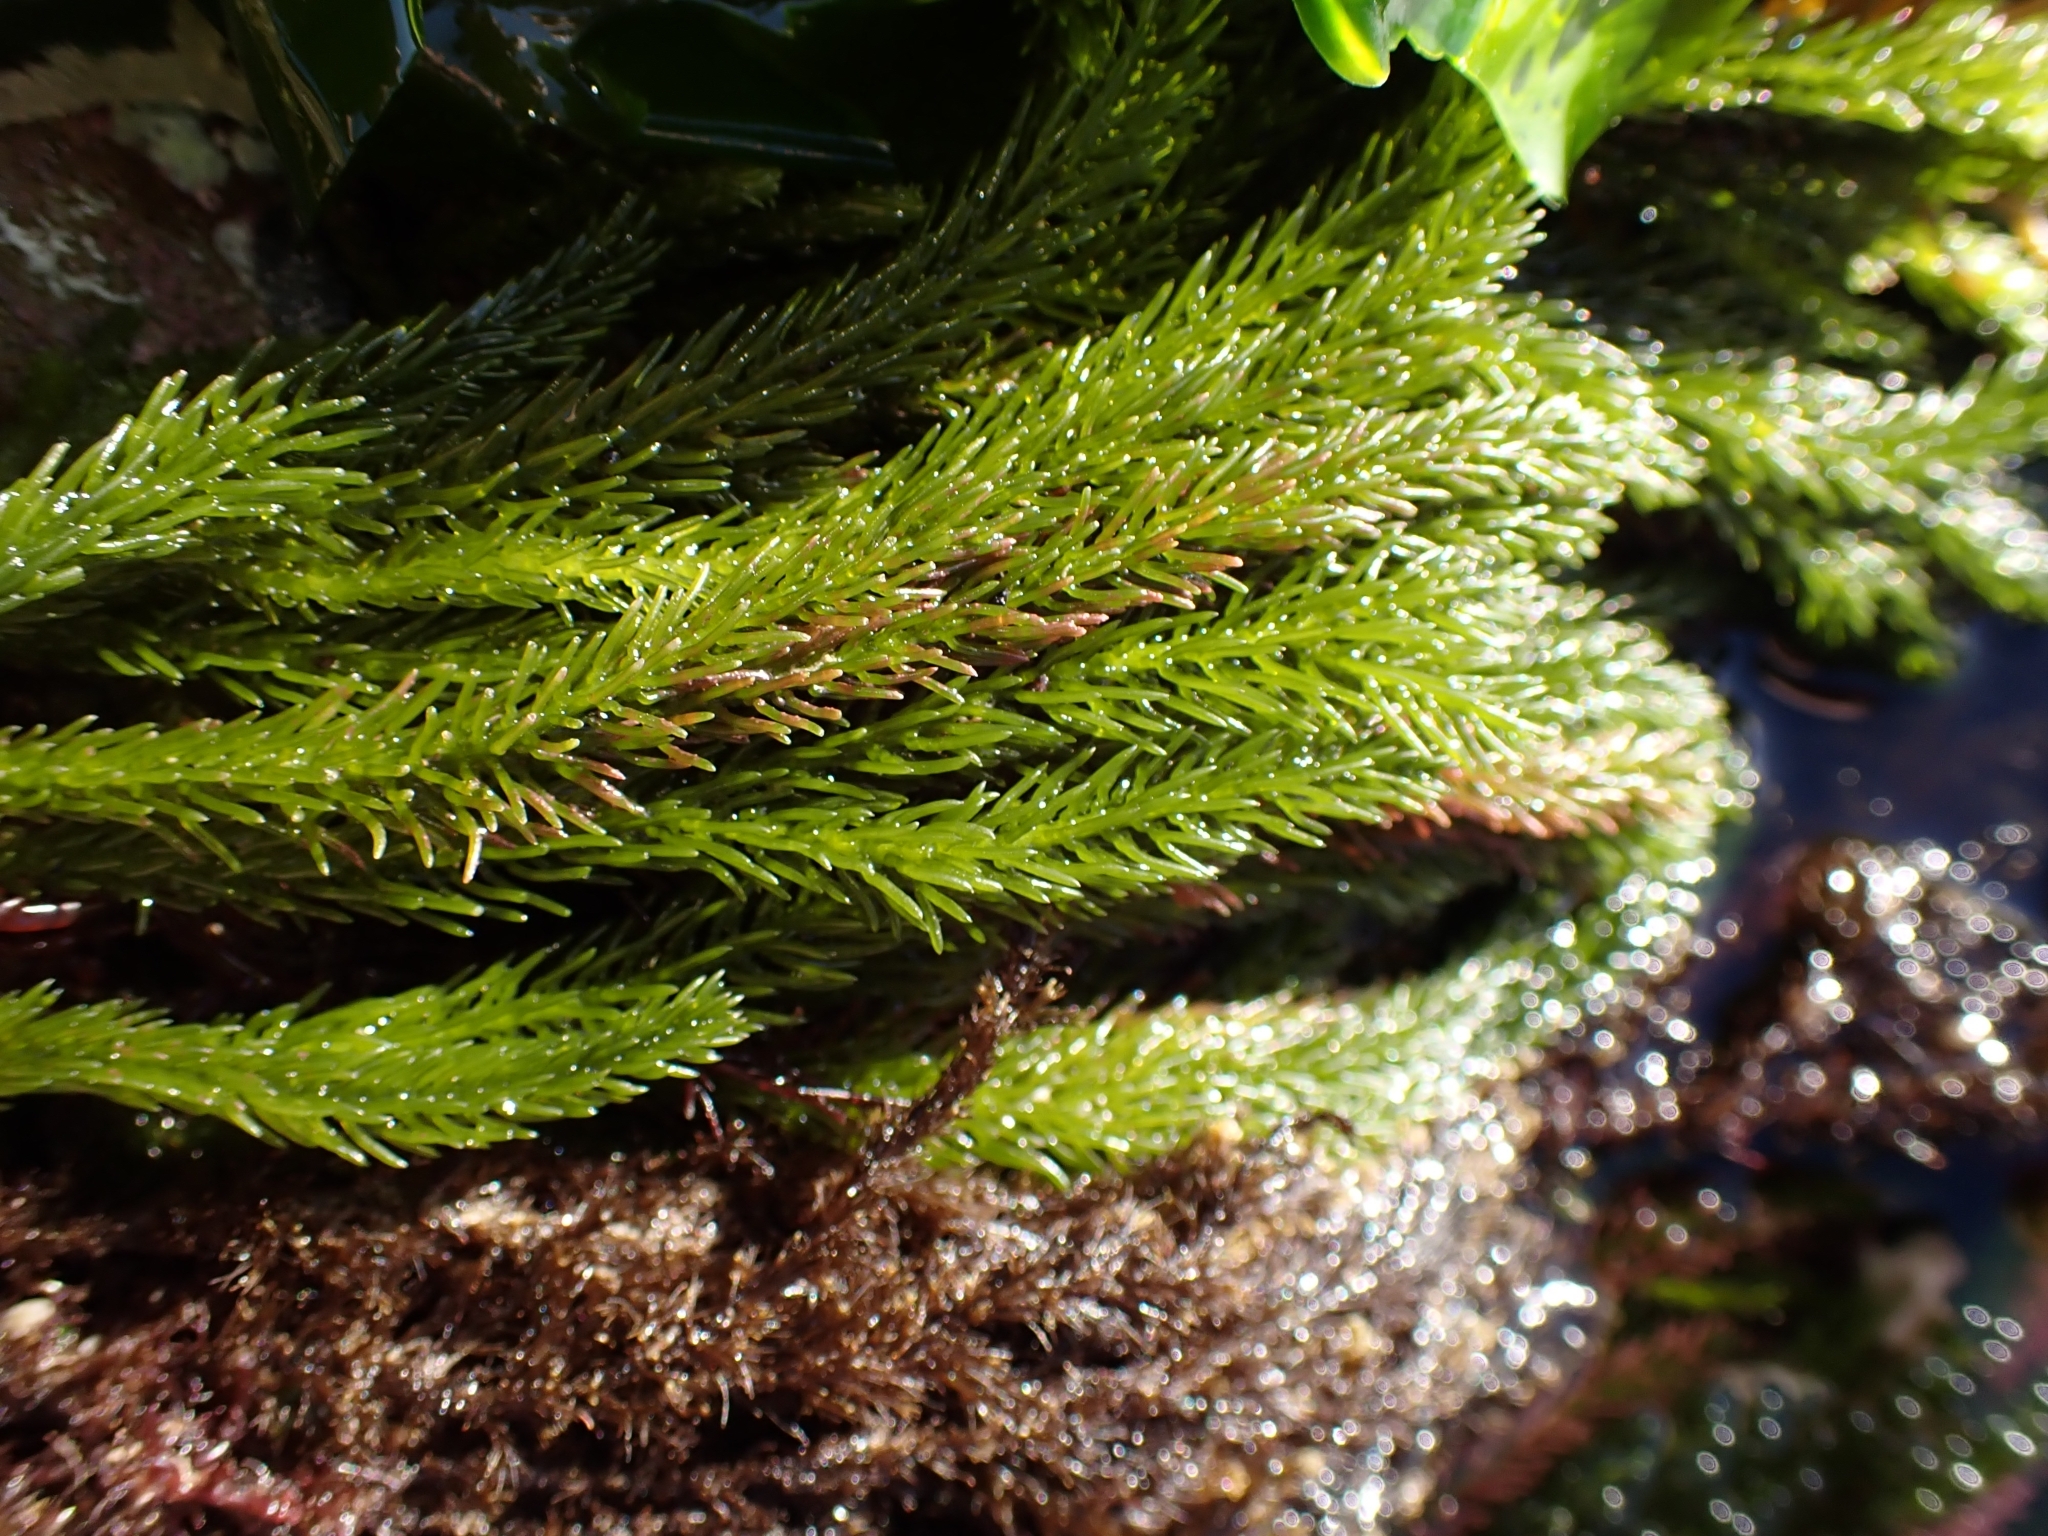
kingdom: Plantae
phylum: Chlorophyta
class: Ulvophyceae
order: Bryopsidales
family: Caulerpaceae
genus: Caulerpa
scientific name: Caulerpa brownii
